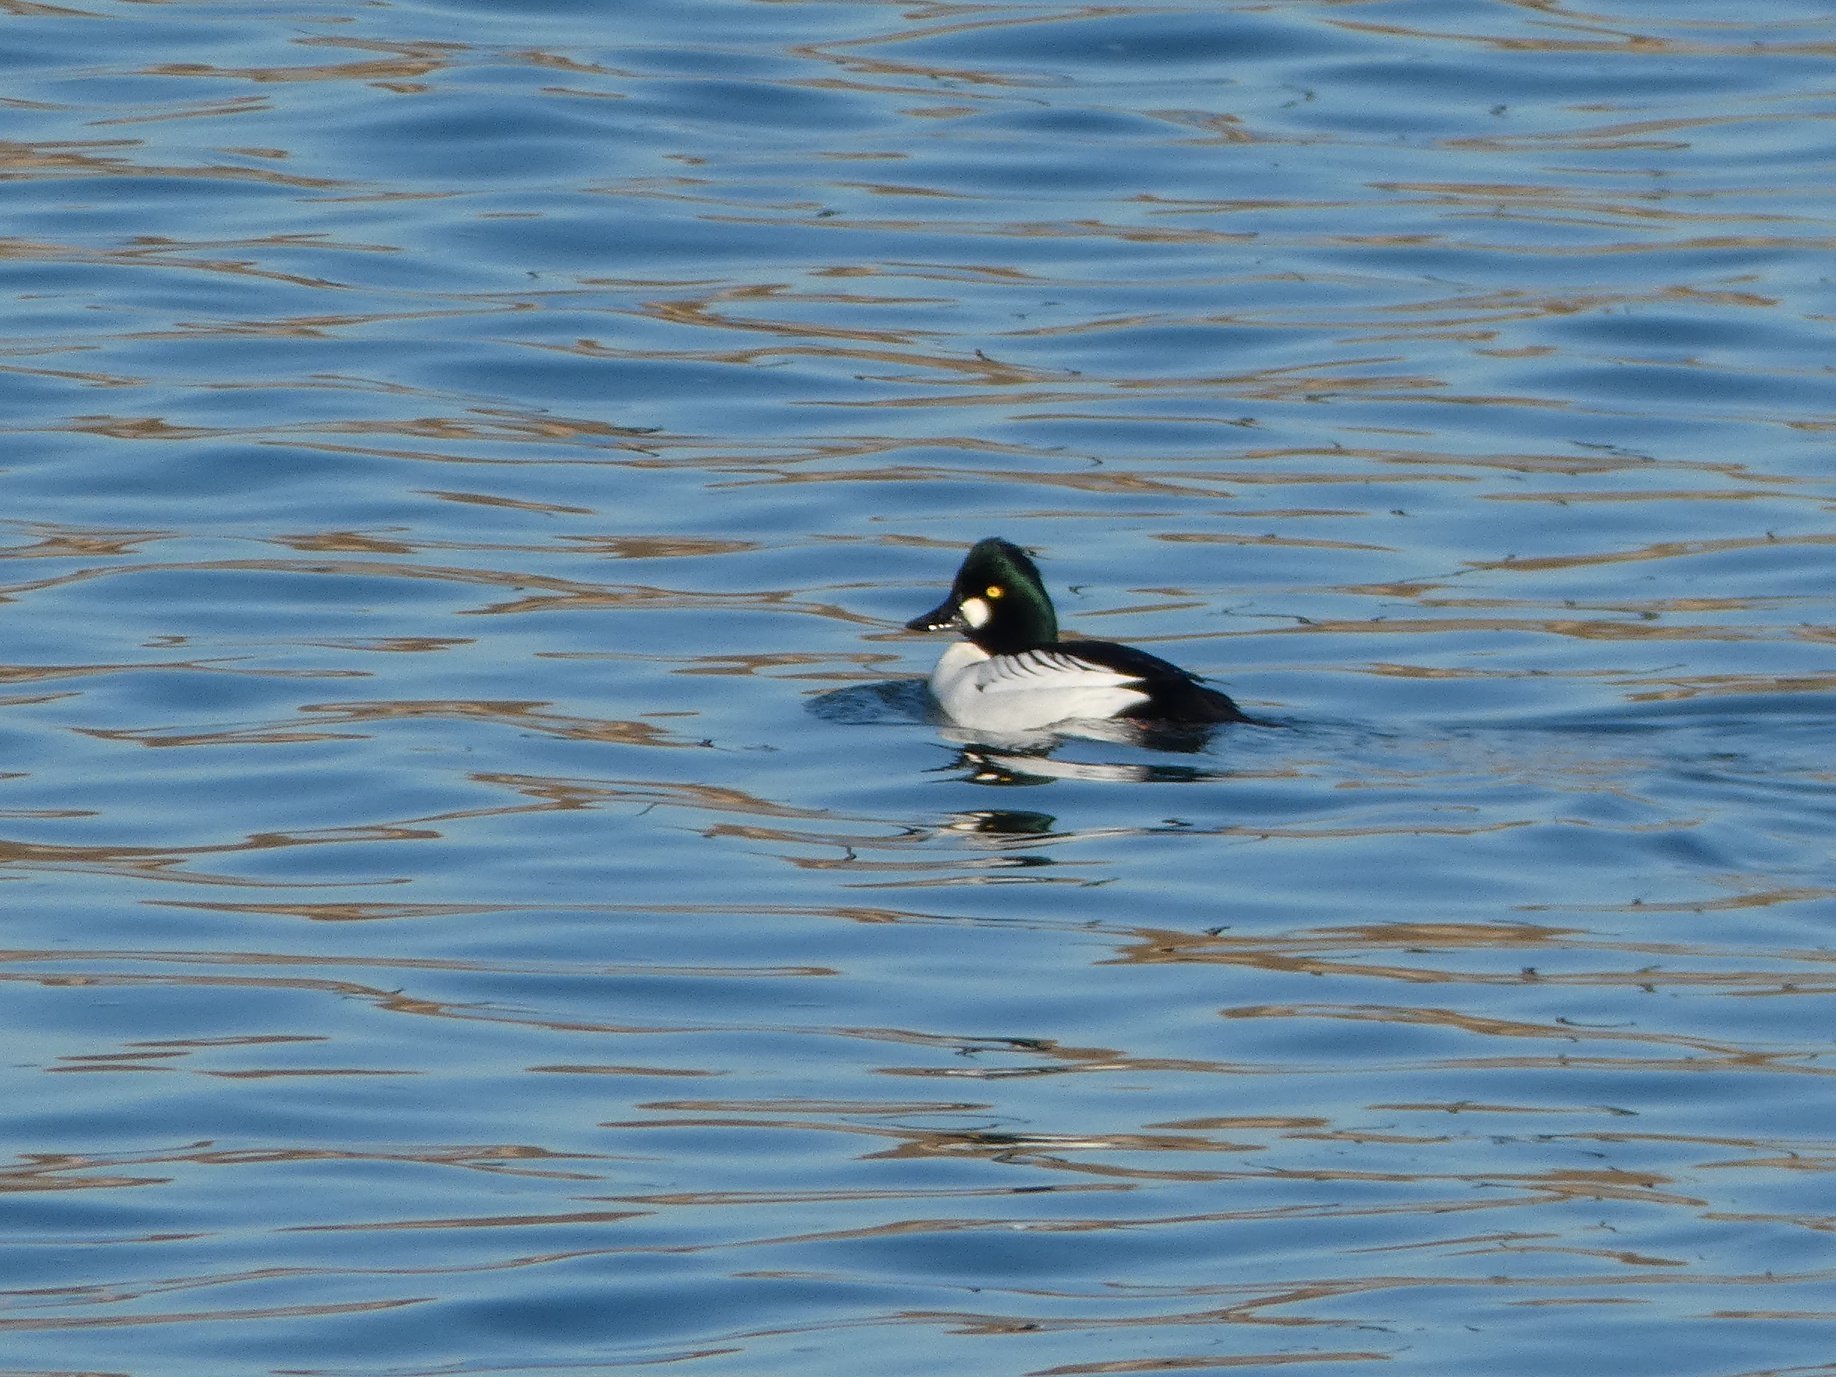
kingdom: Animalia
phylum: Chordata
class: Aves
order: Anseriformes
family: Anatidae
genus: Bucephala
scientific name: Bucephala clangula
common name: Common goldeneye
